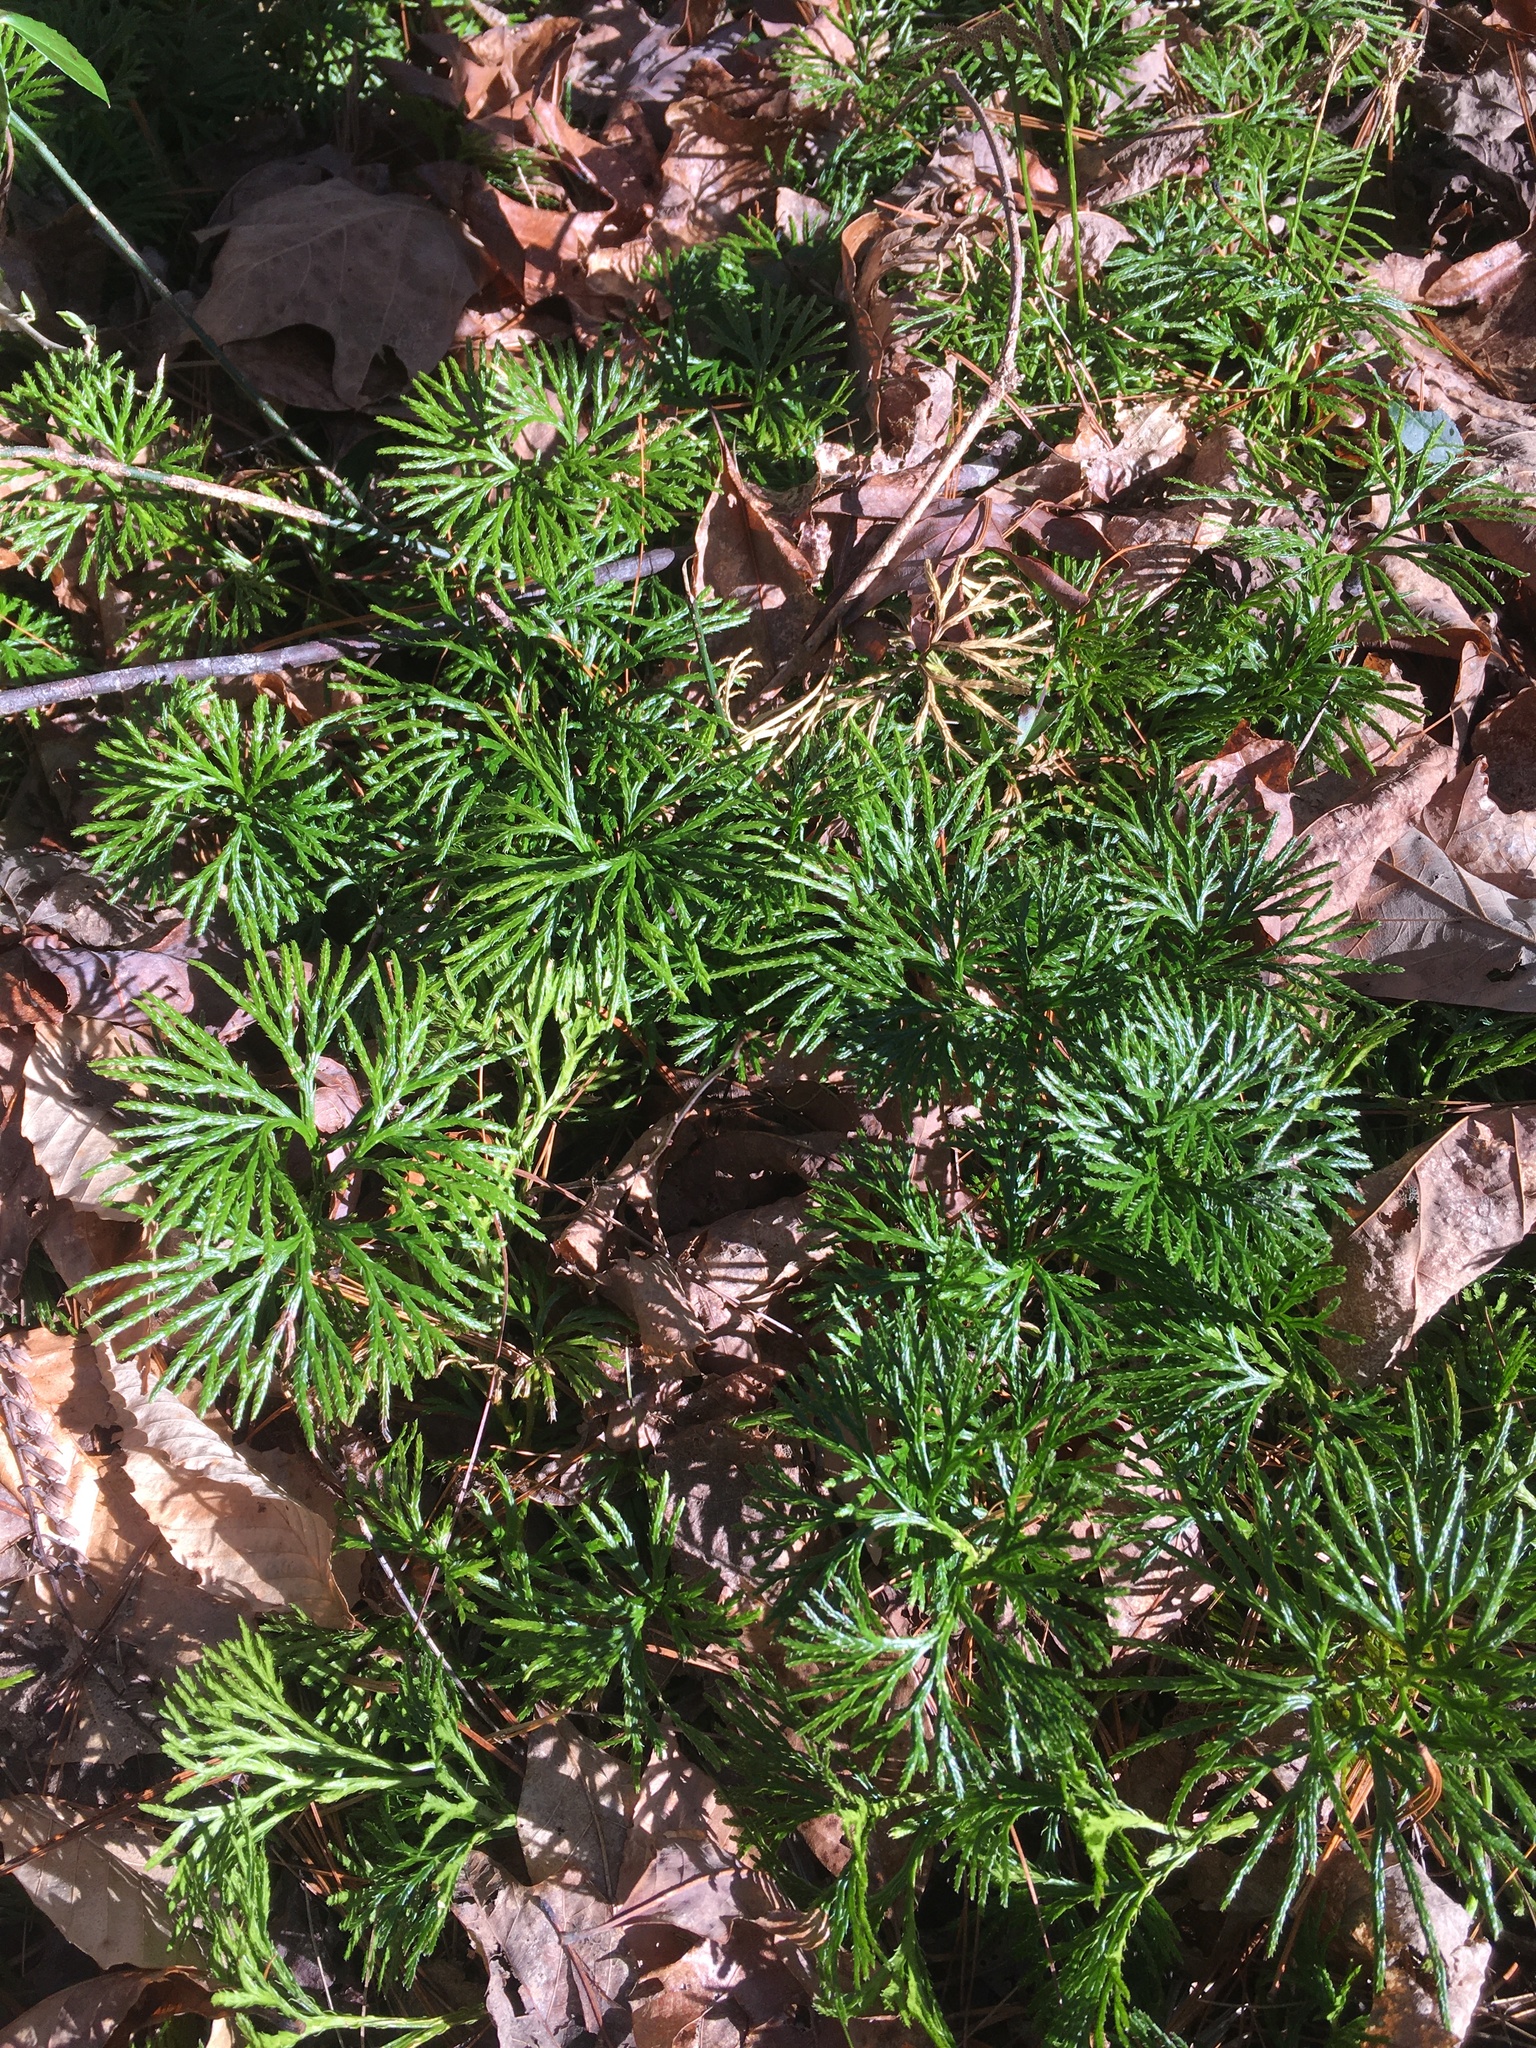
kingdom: Plantae
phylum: Tracheophyta
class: Lycopodiopsida
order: Lycopodiales
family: Lycopodiaceae
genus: Diphasiastrum
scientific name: Diphasiastrum digitatum
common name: Southern running-pine
